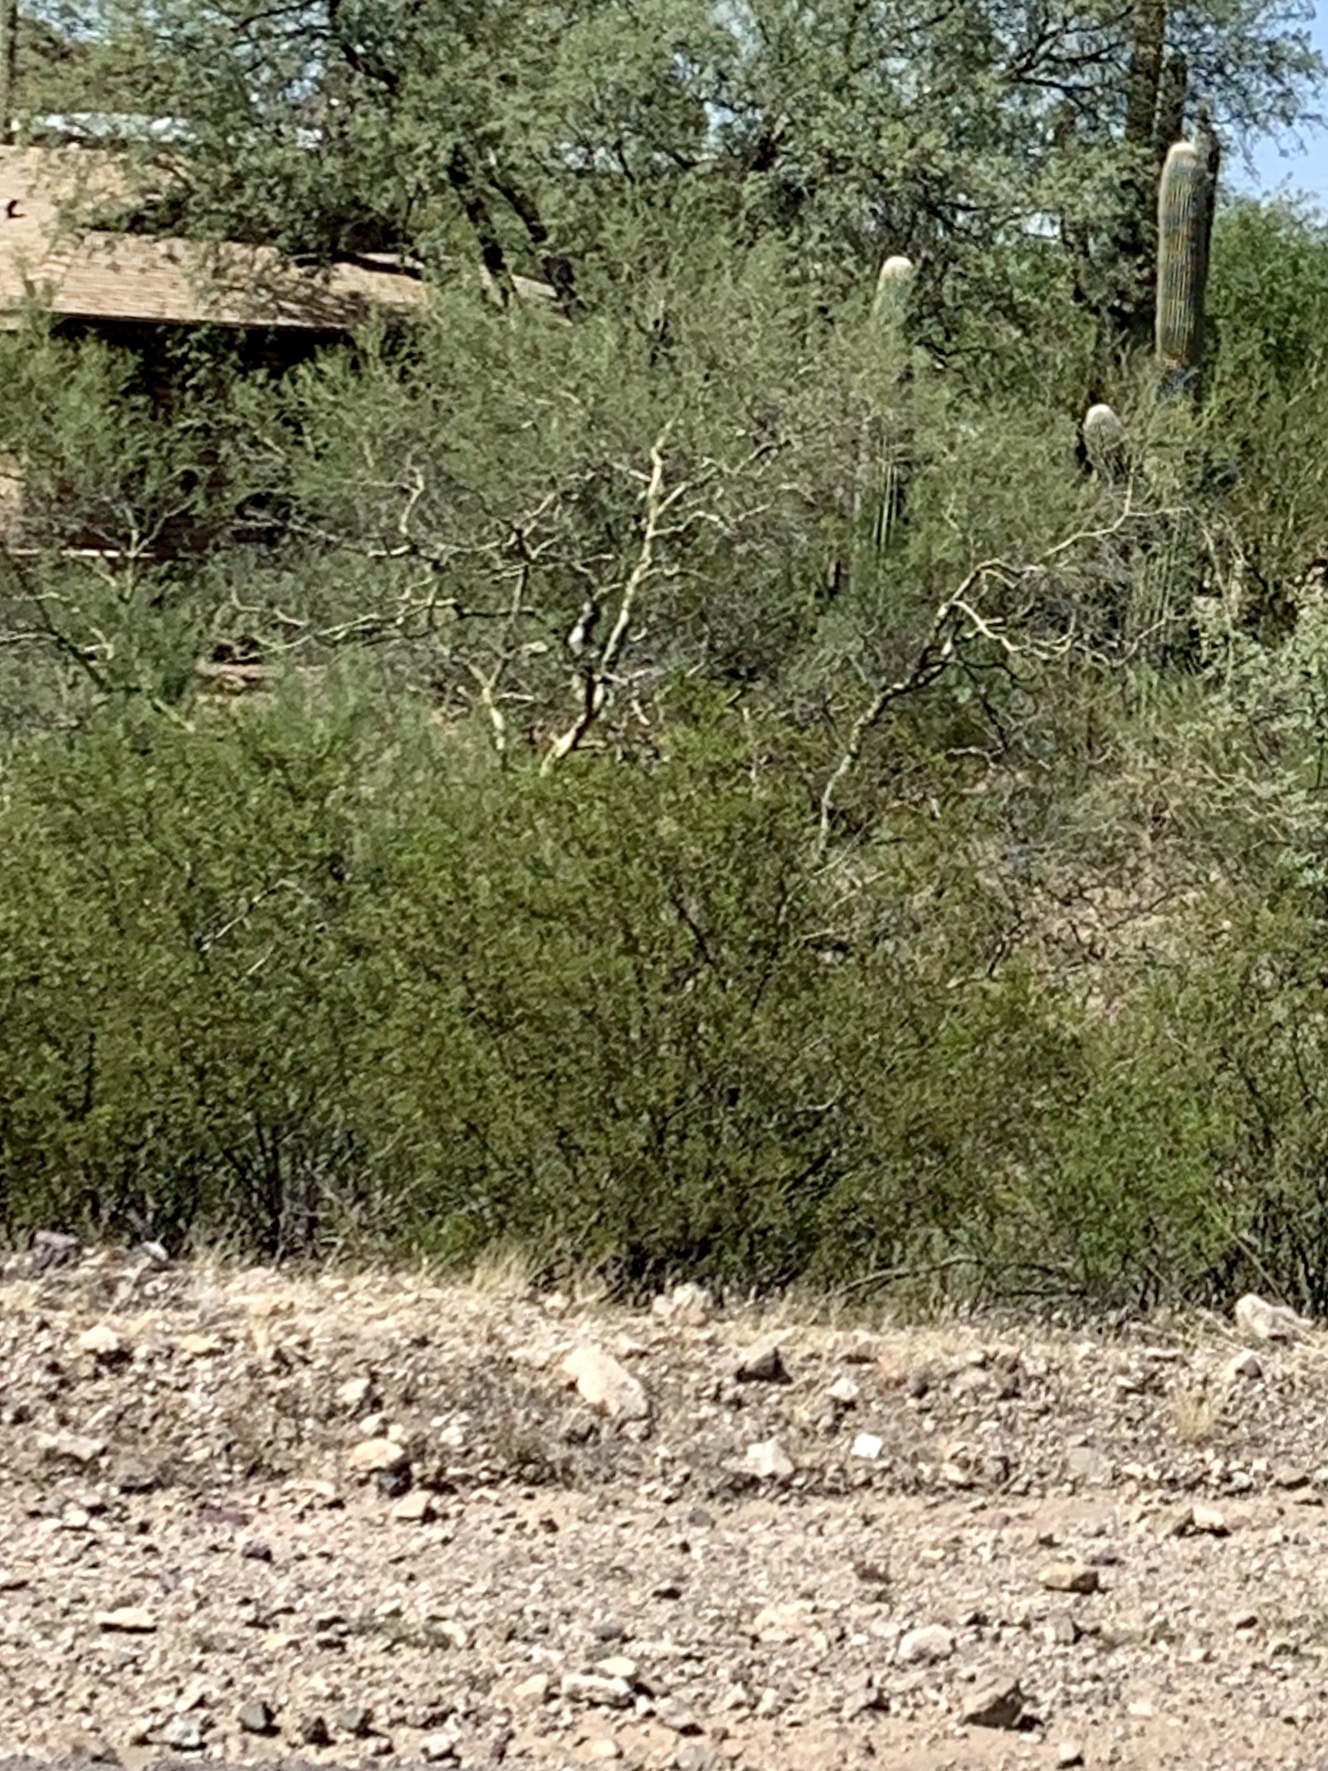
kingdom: Plantae
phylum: Tracheophyta
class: Magnoliopsida
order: Zygophyllales
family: Zygophyllaceae
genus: Larrea
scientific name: Larrea tridentata
